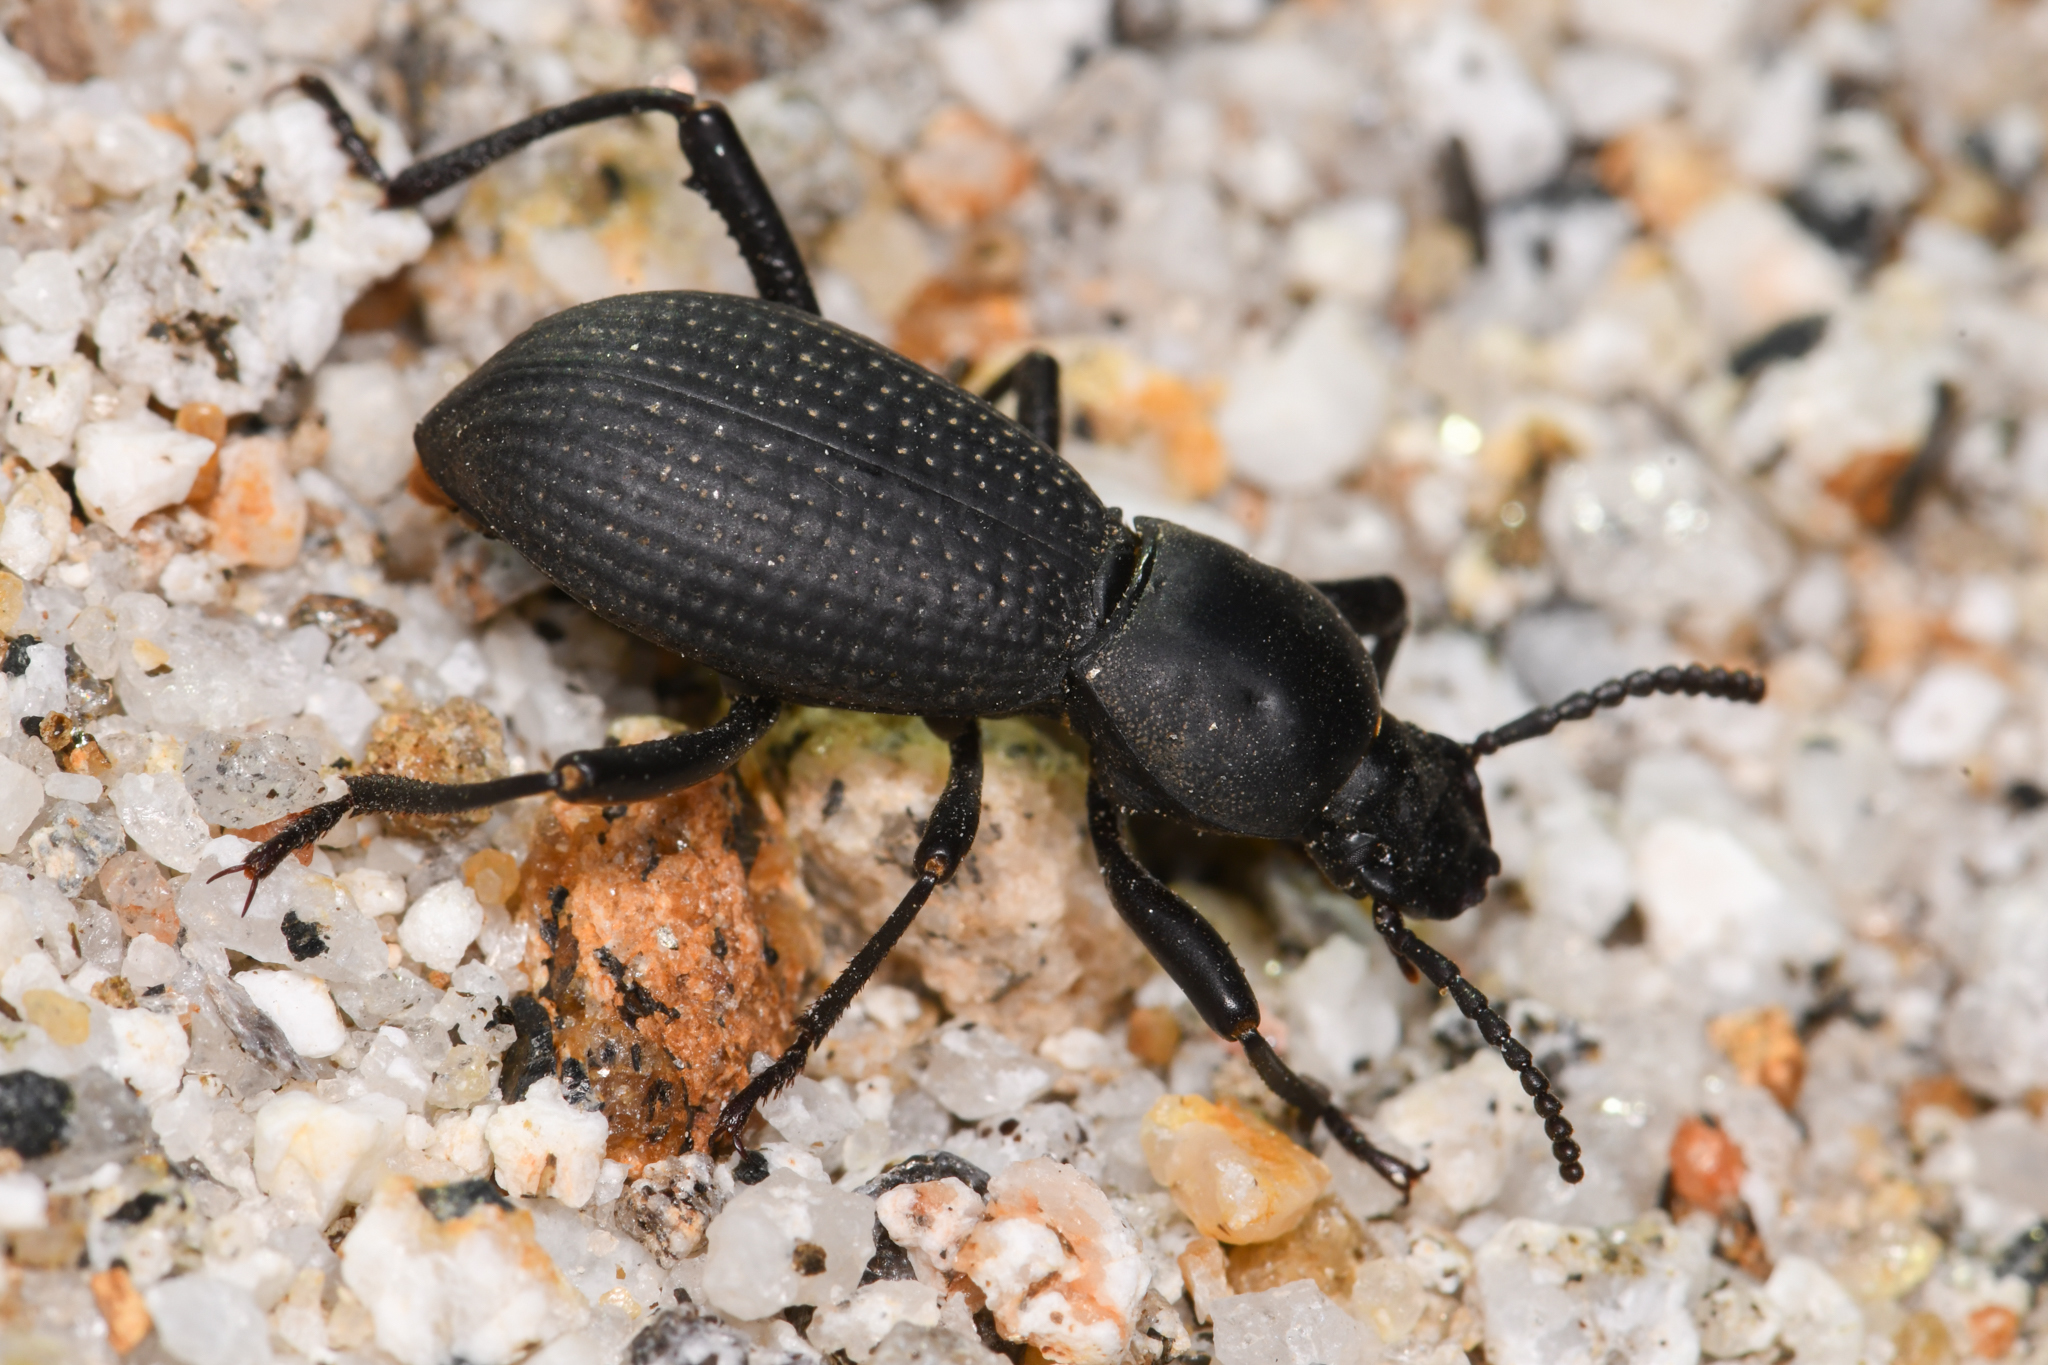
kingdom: Animalia
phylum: Arthropoda
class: Insecta
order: Coleoptera
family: Tenebrionidae
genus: Cerenopus
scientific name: Cerenopus concolor
